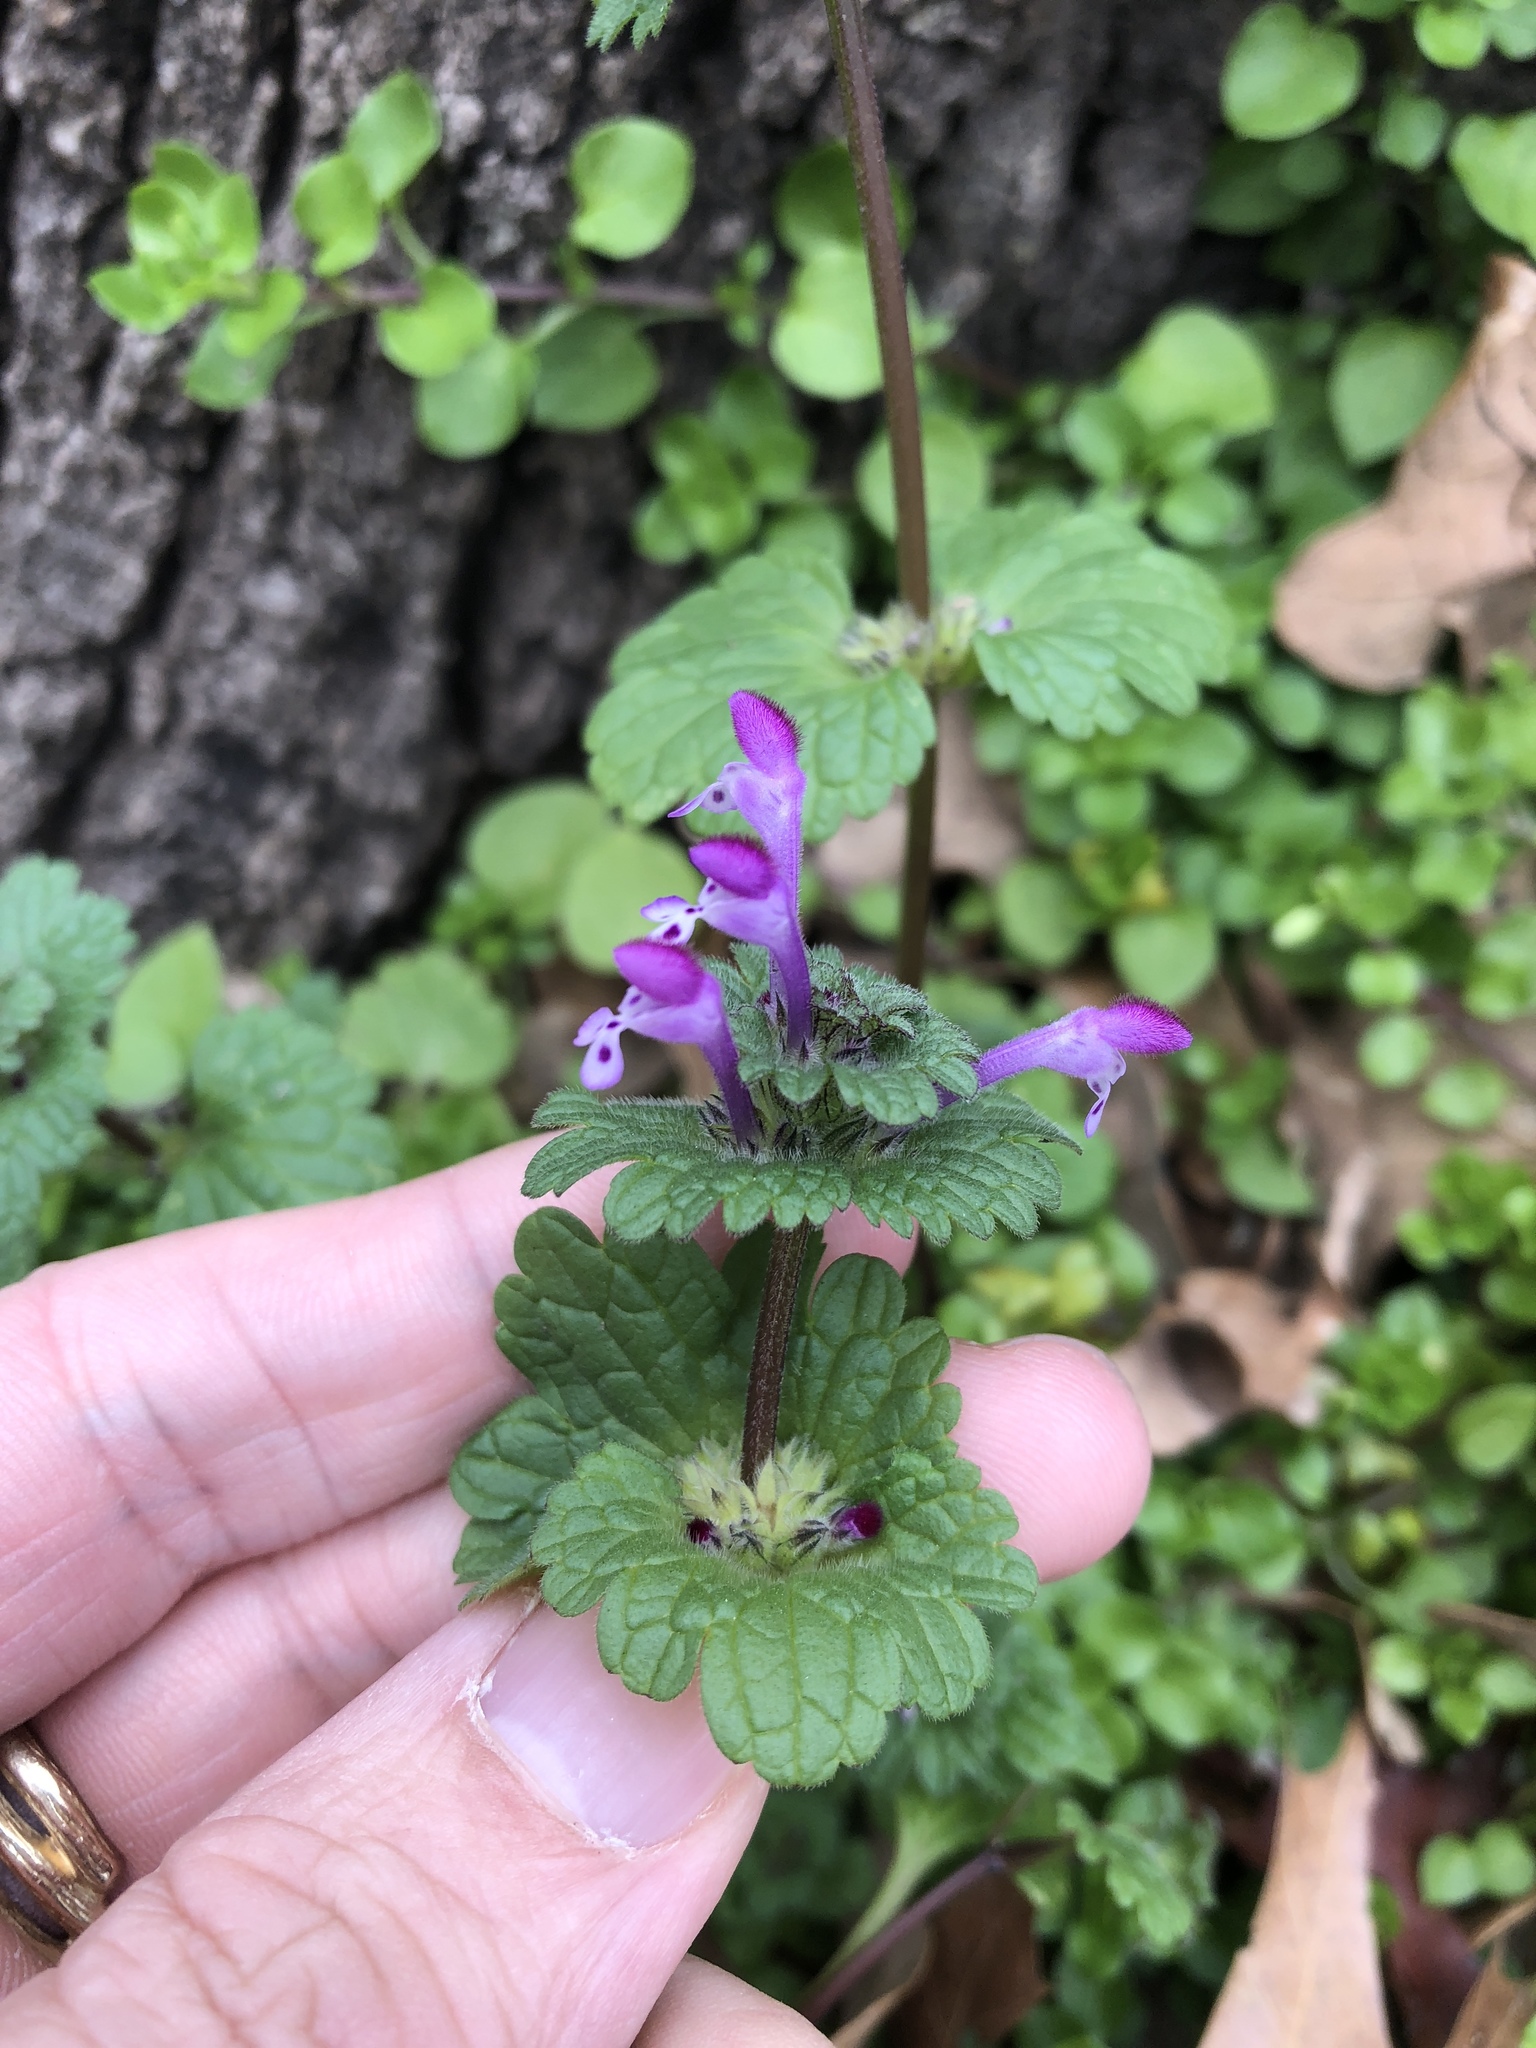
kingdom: Plantae
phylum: Tracheophyta
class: Magnoliopsida
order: Lamiales
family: Lamiaceae
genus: Lamium
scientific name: Lamium amplexicaule
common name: Henbit dead-nettle
